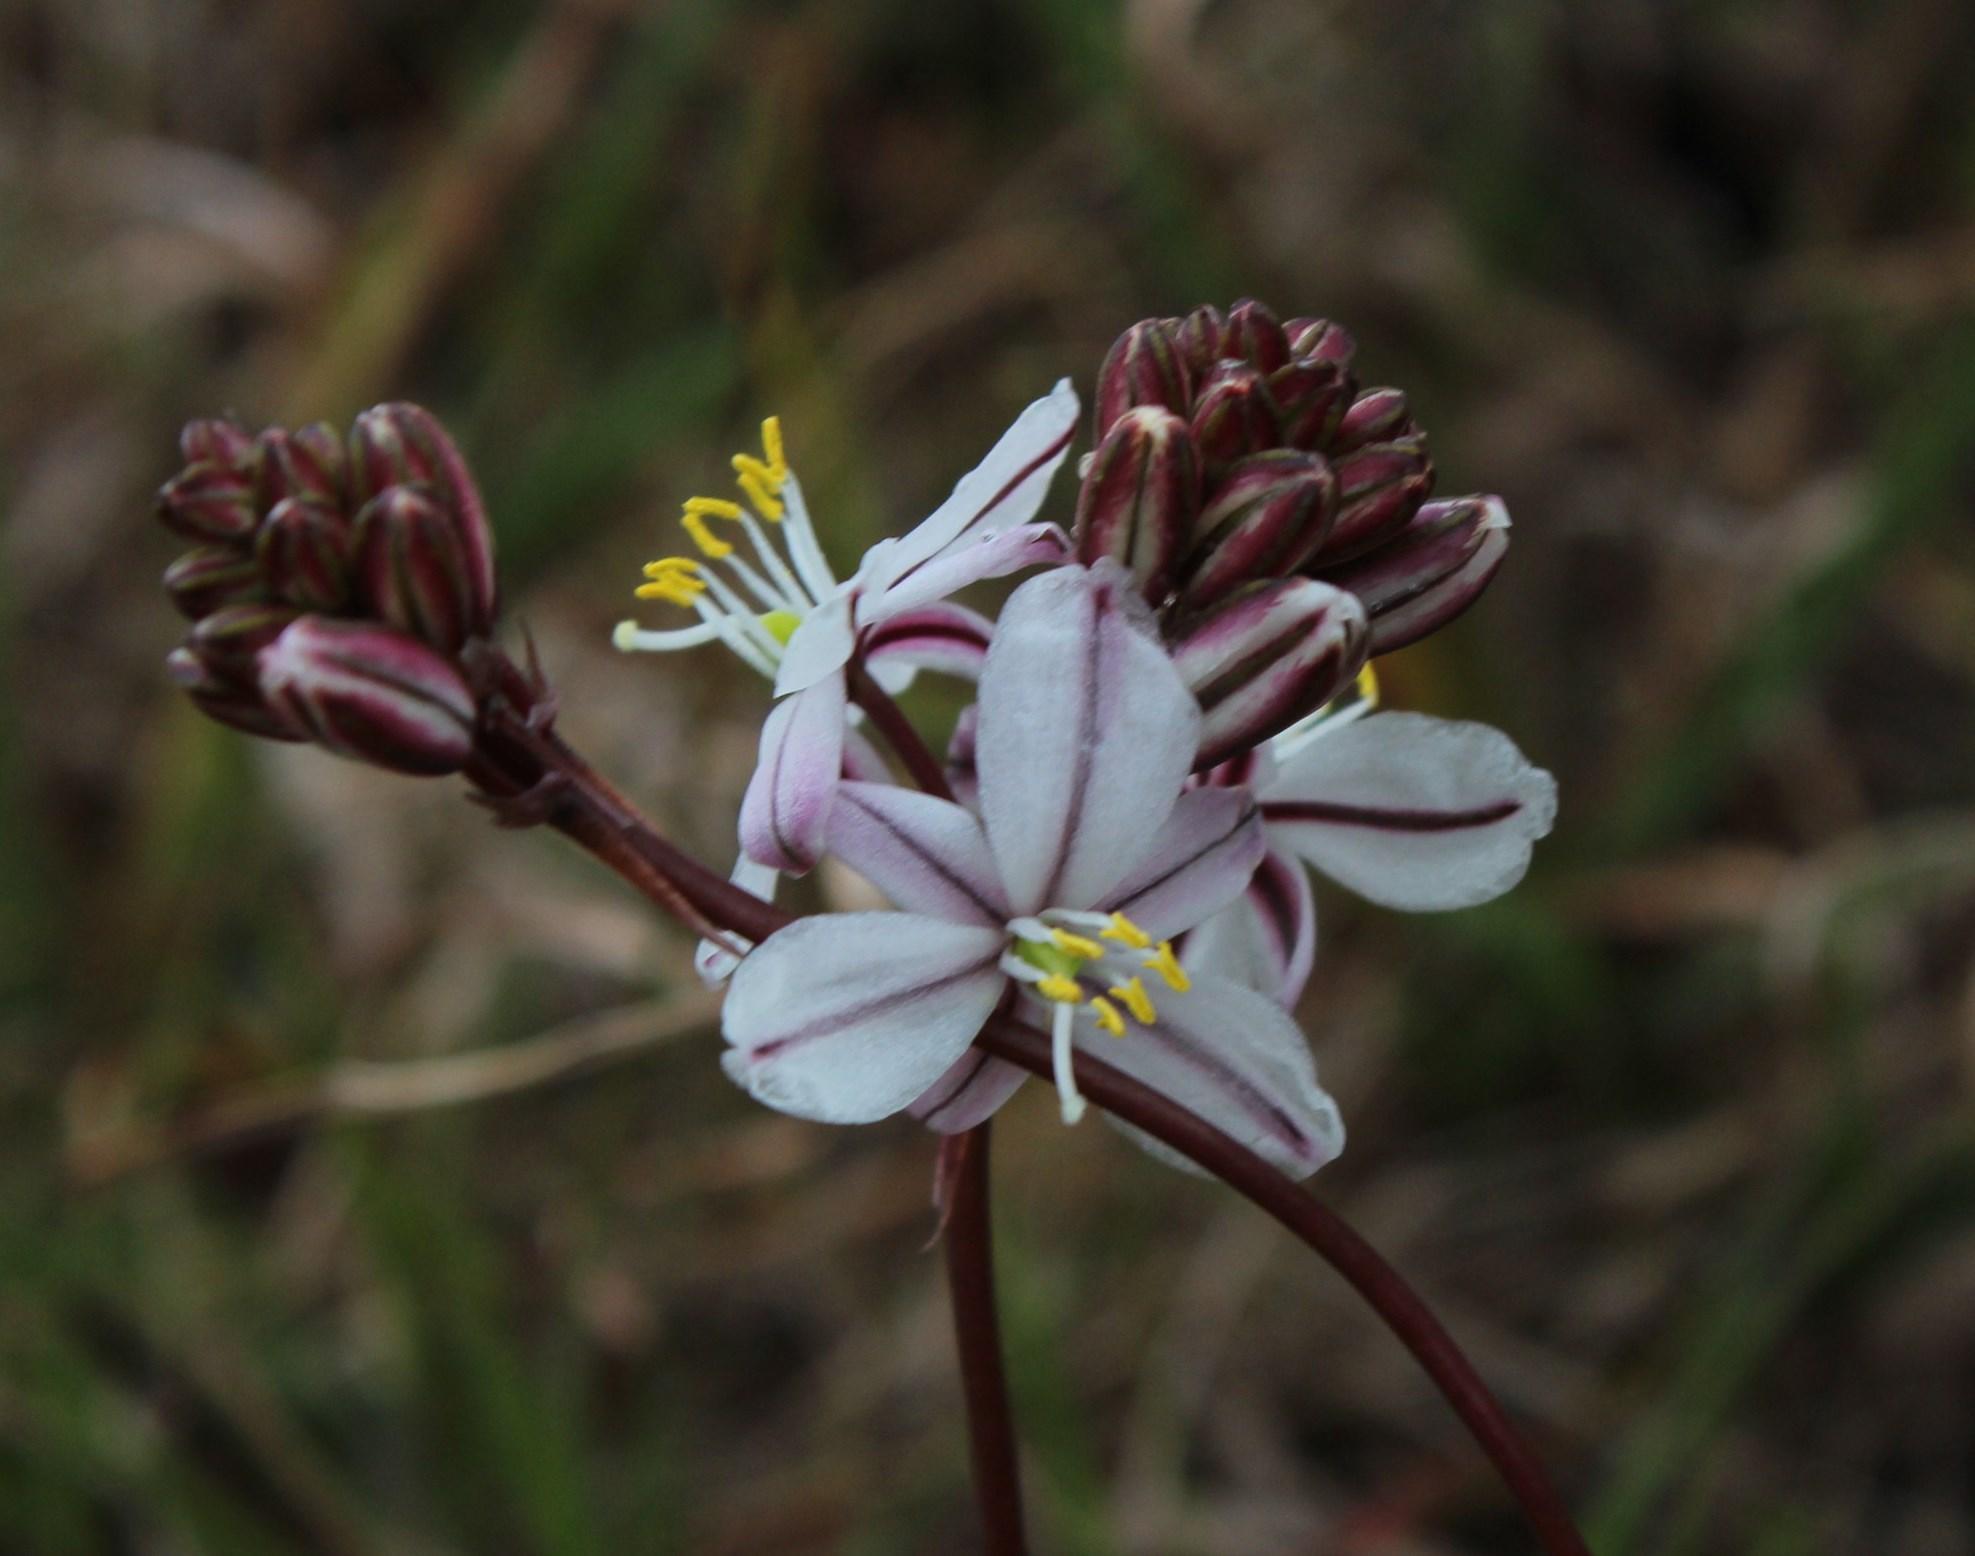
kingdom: Plantae
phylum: Tracheophyta
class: Liliopsida
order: Asparagales
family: Asparagaceae
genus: Drimia
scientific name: Drimia exuviata
